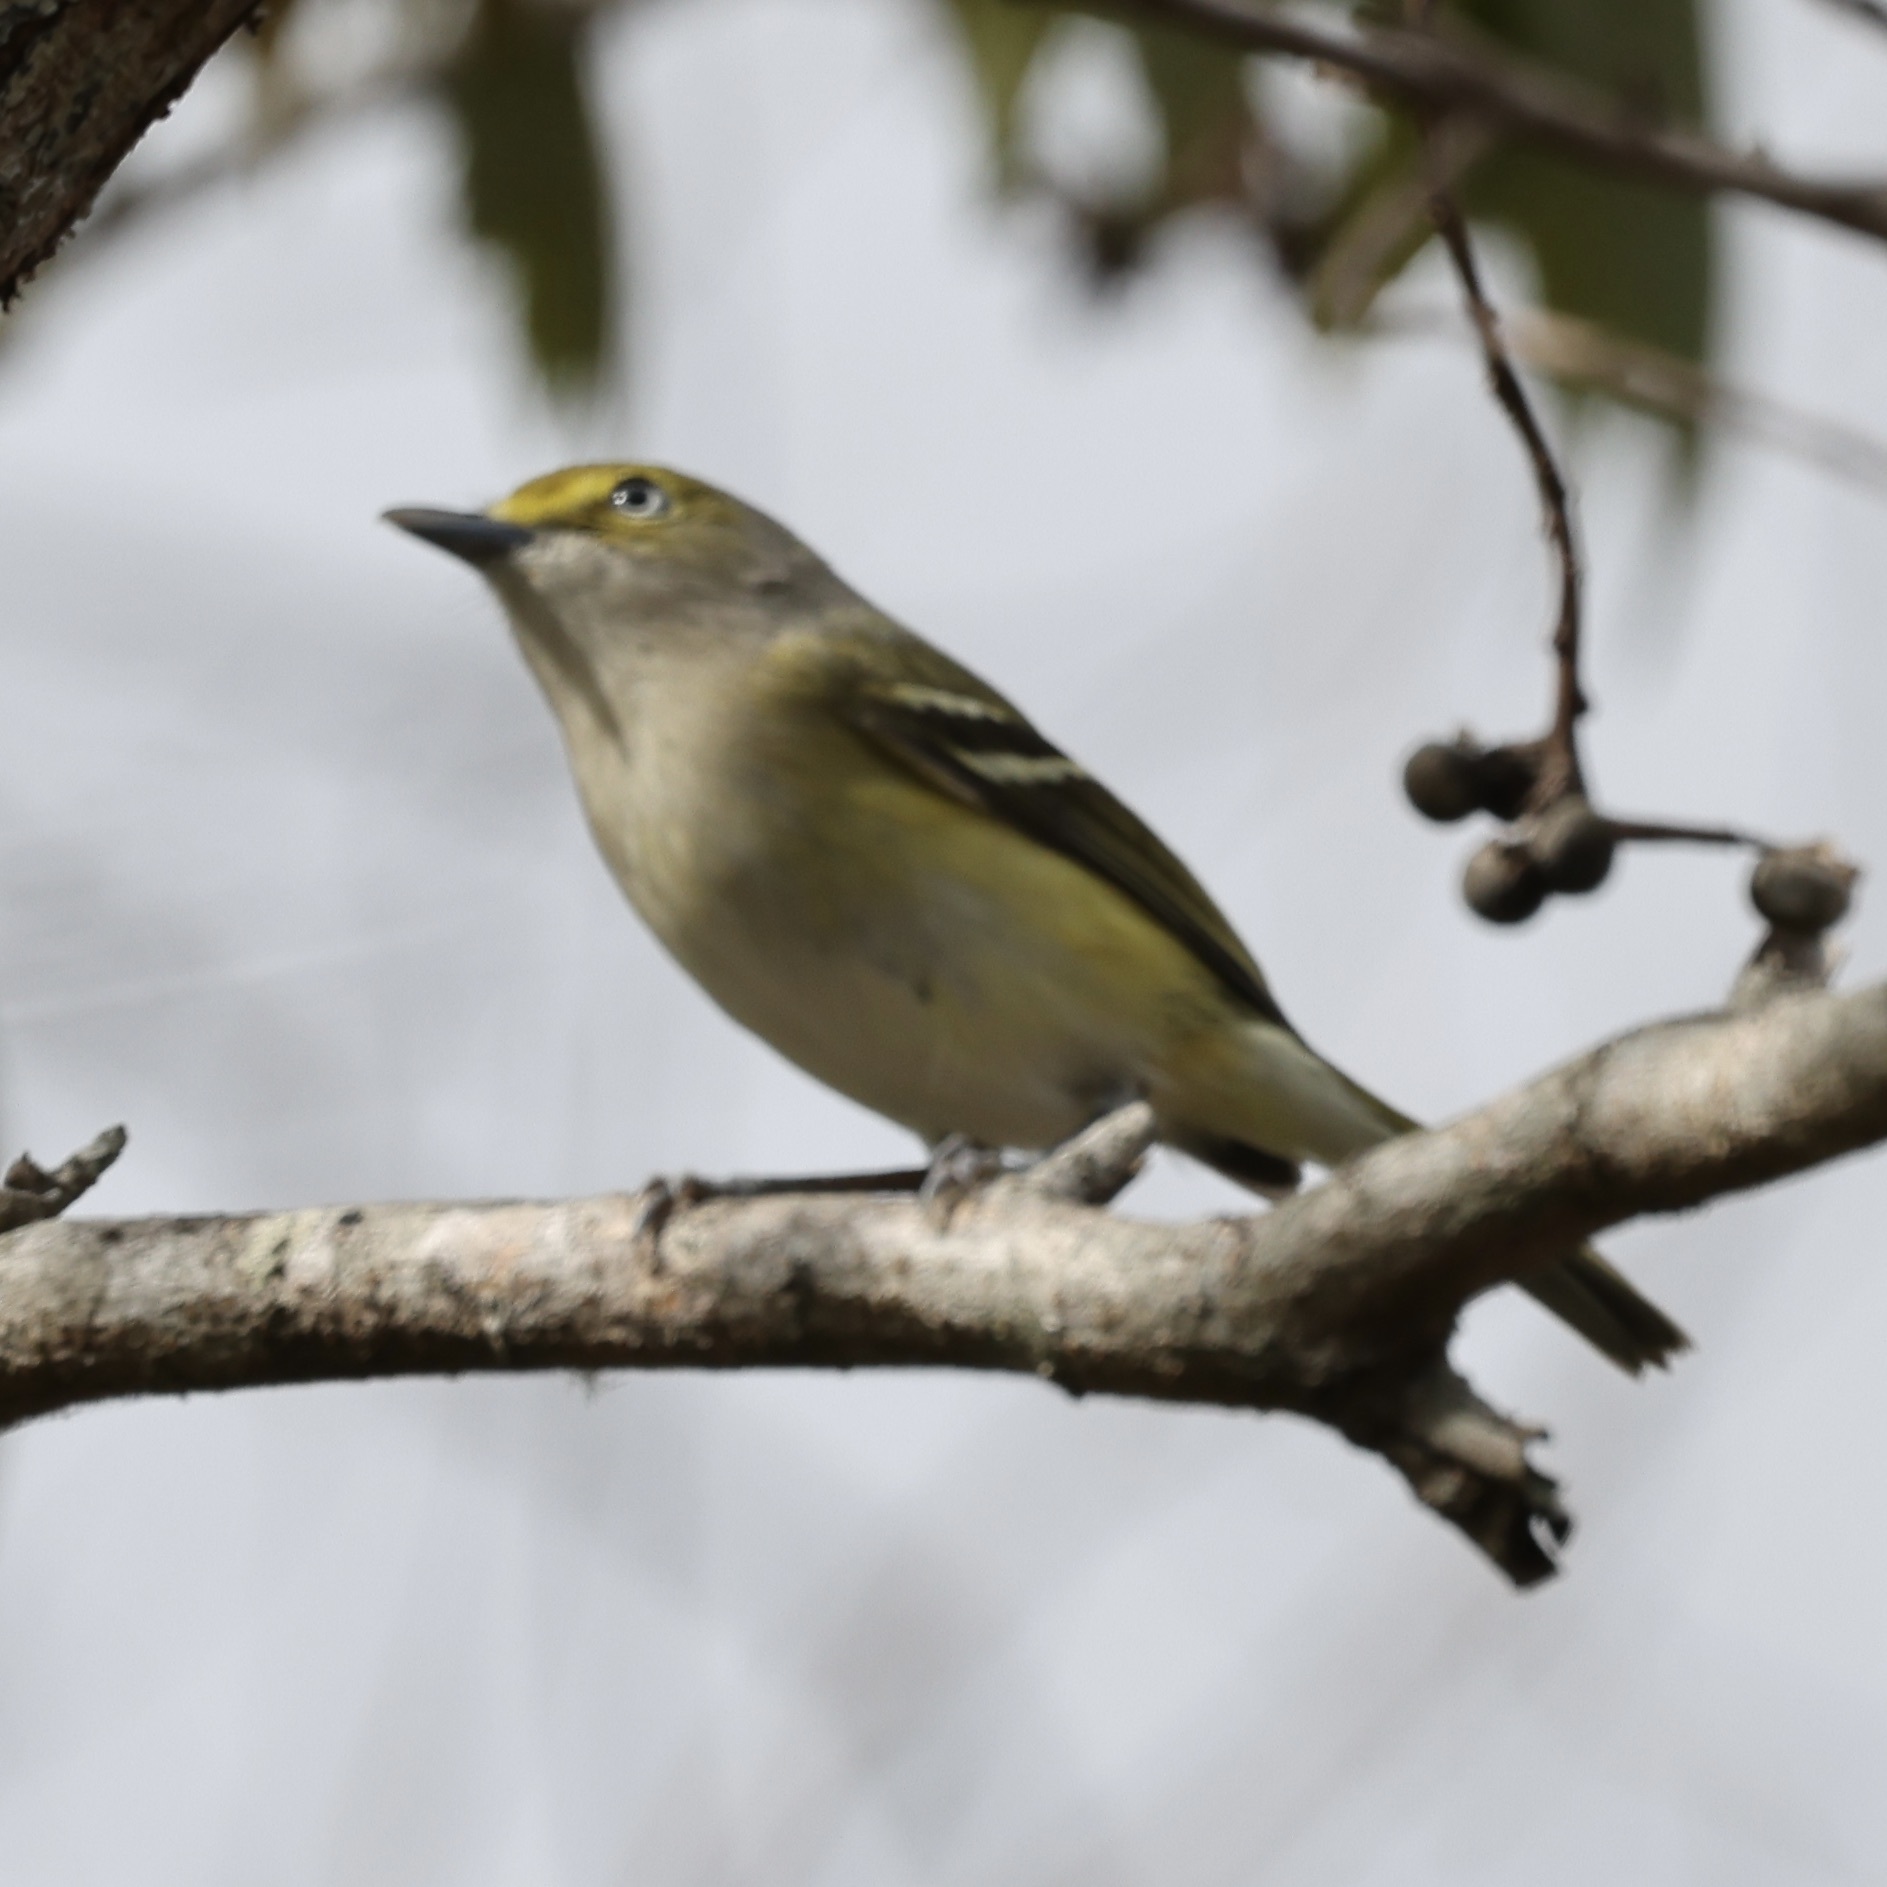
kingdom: Animalia
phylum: Chordata
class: Aves
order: Passeriformes
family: Vireonidae
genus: Vireo
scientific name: Vireo griseus
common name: White-eyed vireo
